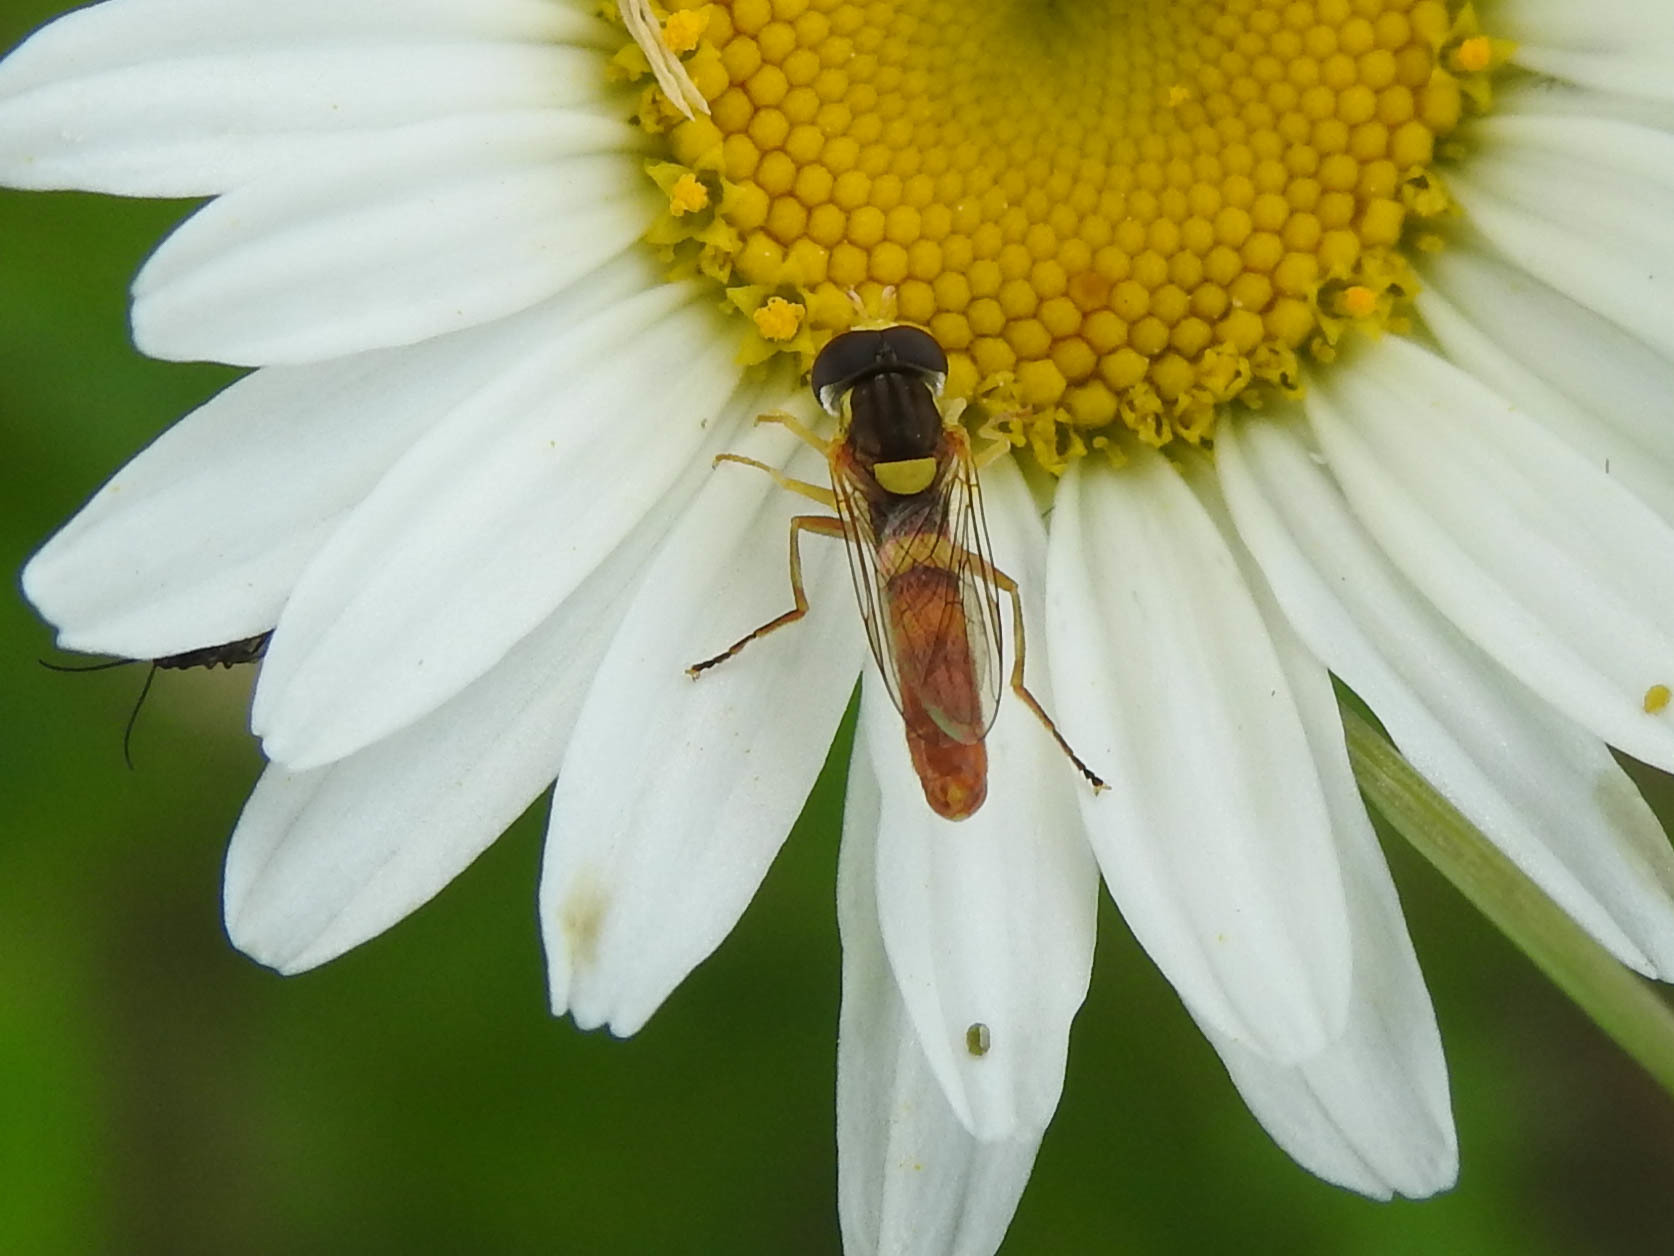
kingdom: Animalia
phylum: Arthropoda
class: Insecta
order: Diptera
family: Syrphidae
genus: Sphaerophoria
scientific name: Sphaerophoria contigua
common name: Tufted globetail
